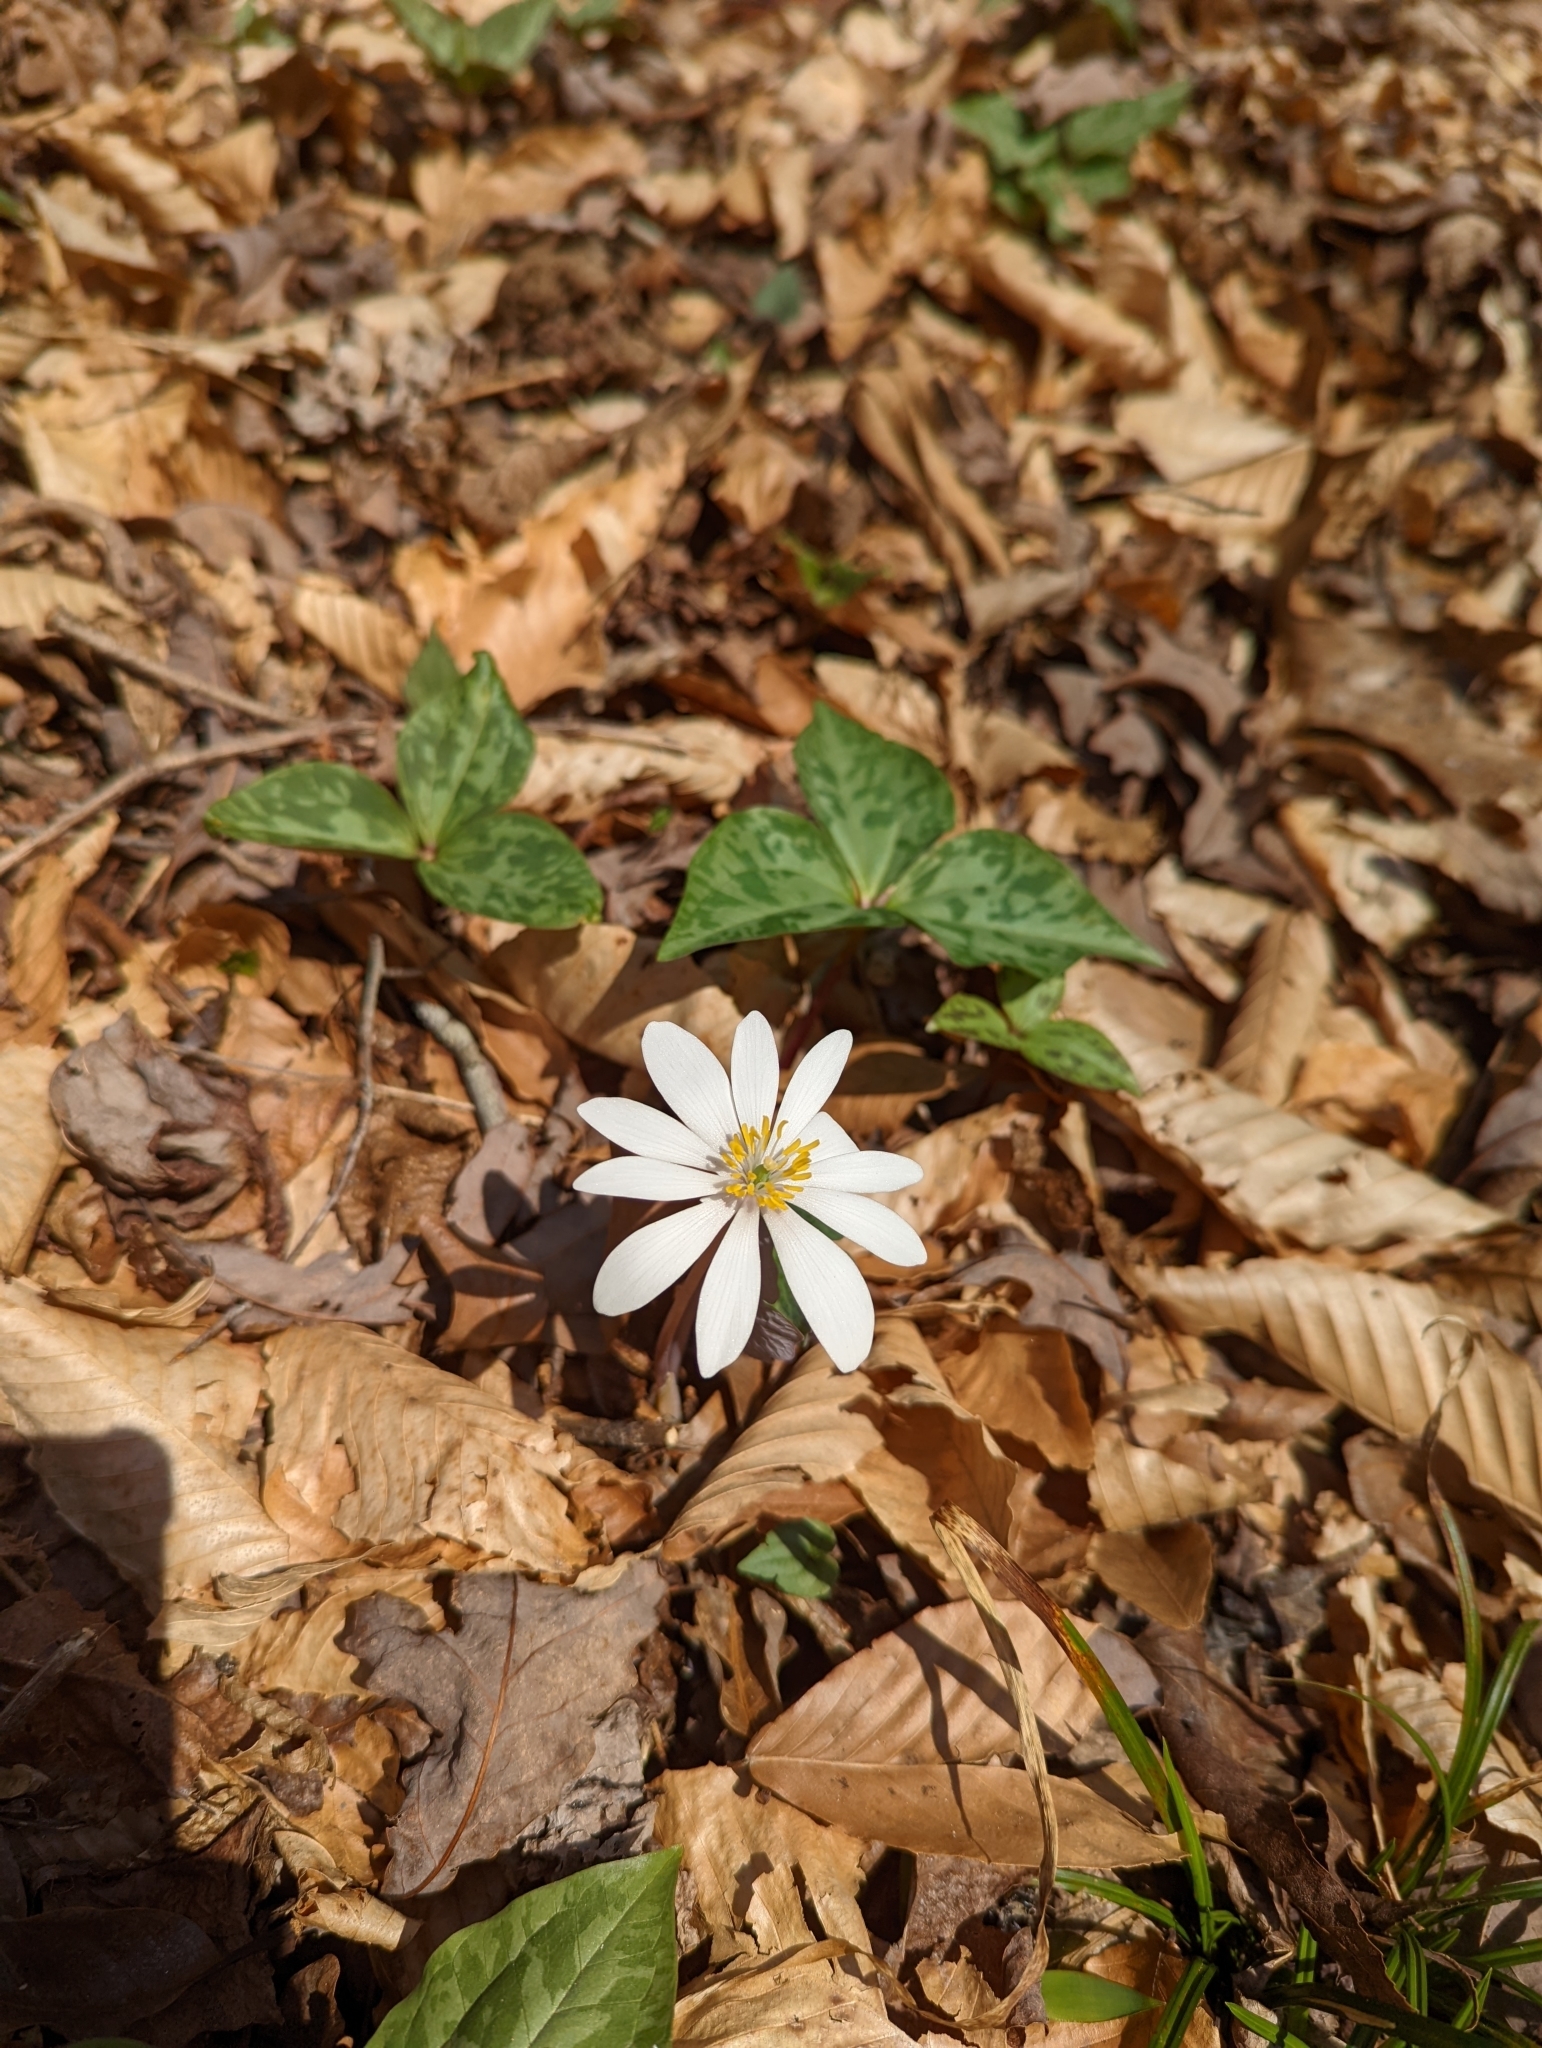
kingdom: Plantae
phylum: Tracheophyta
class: Magnoliopsida
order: Ranunculales
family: Papaveraceae
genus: Sanguinaria
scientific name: Sanguinaria canadensis
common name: Bloodroot
